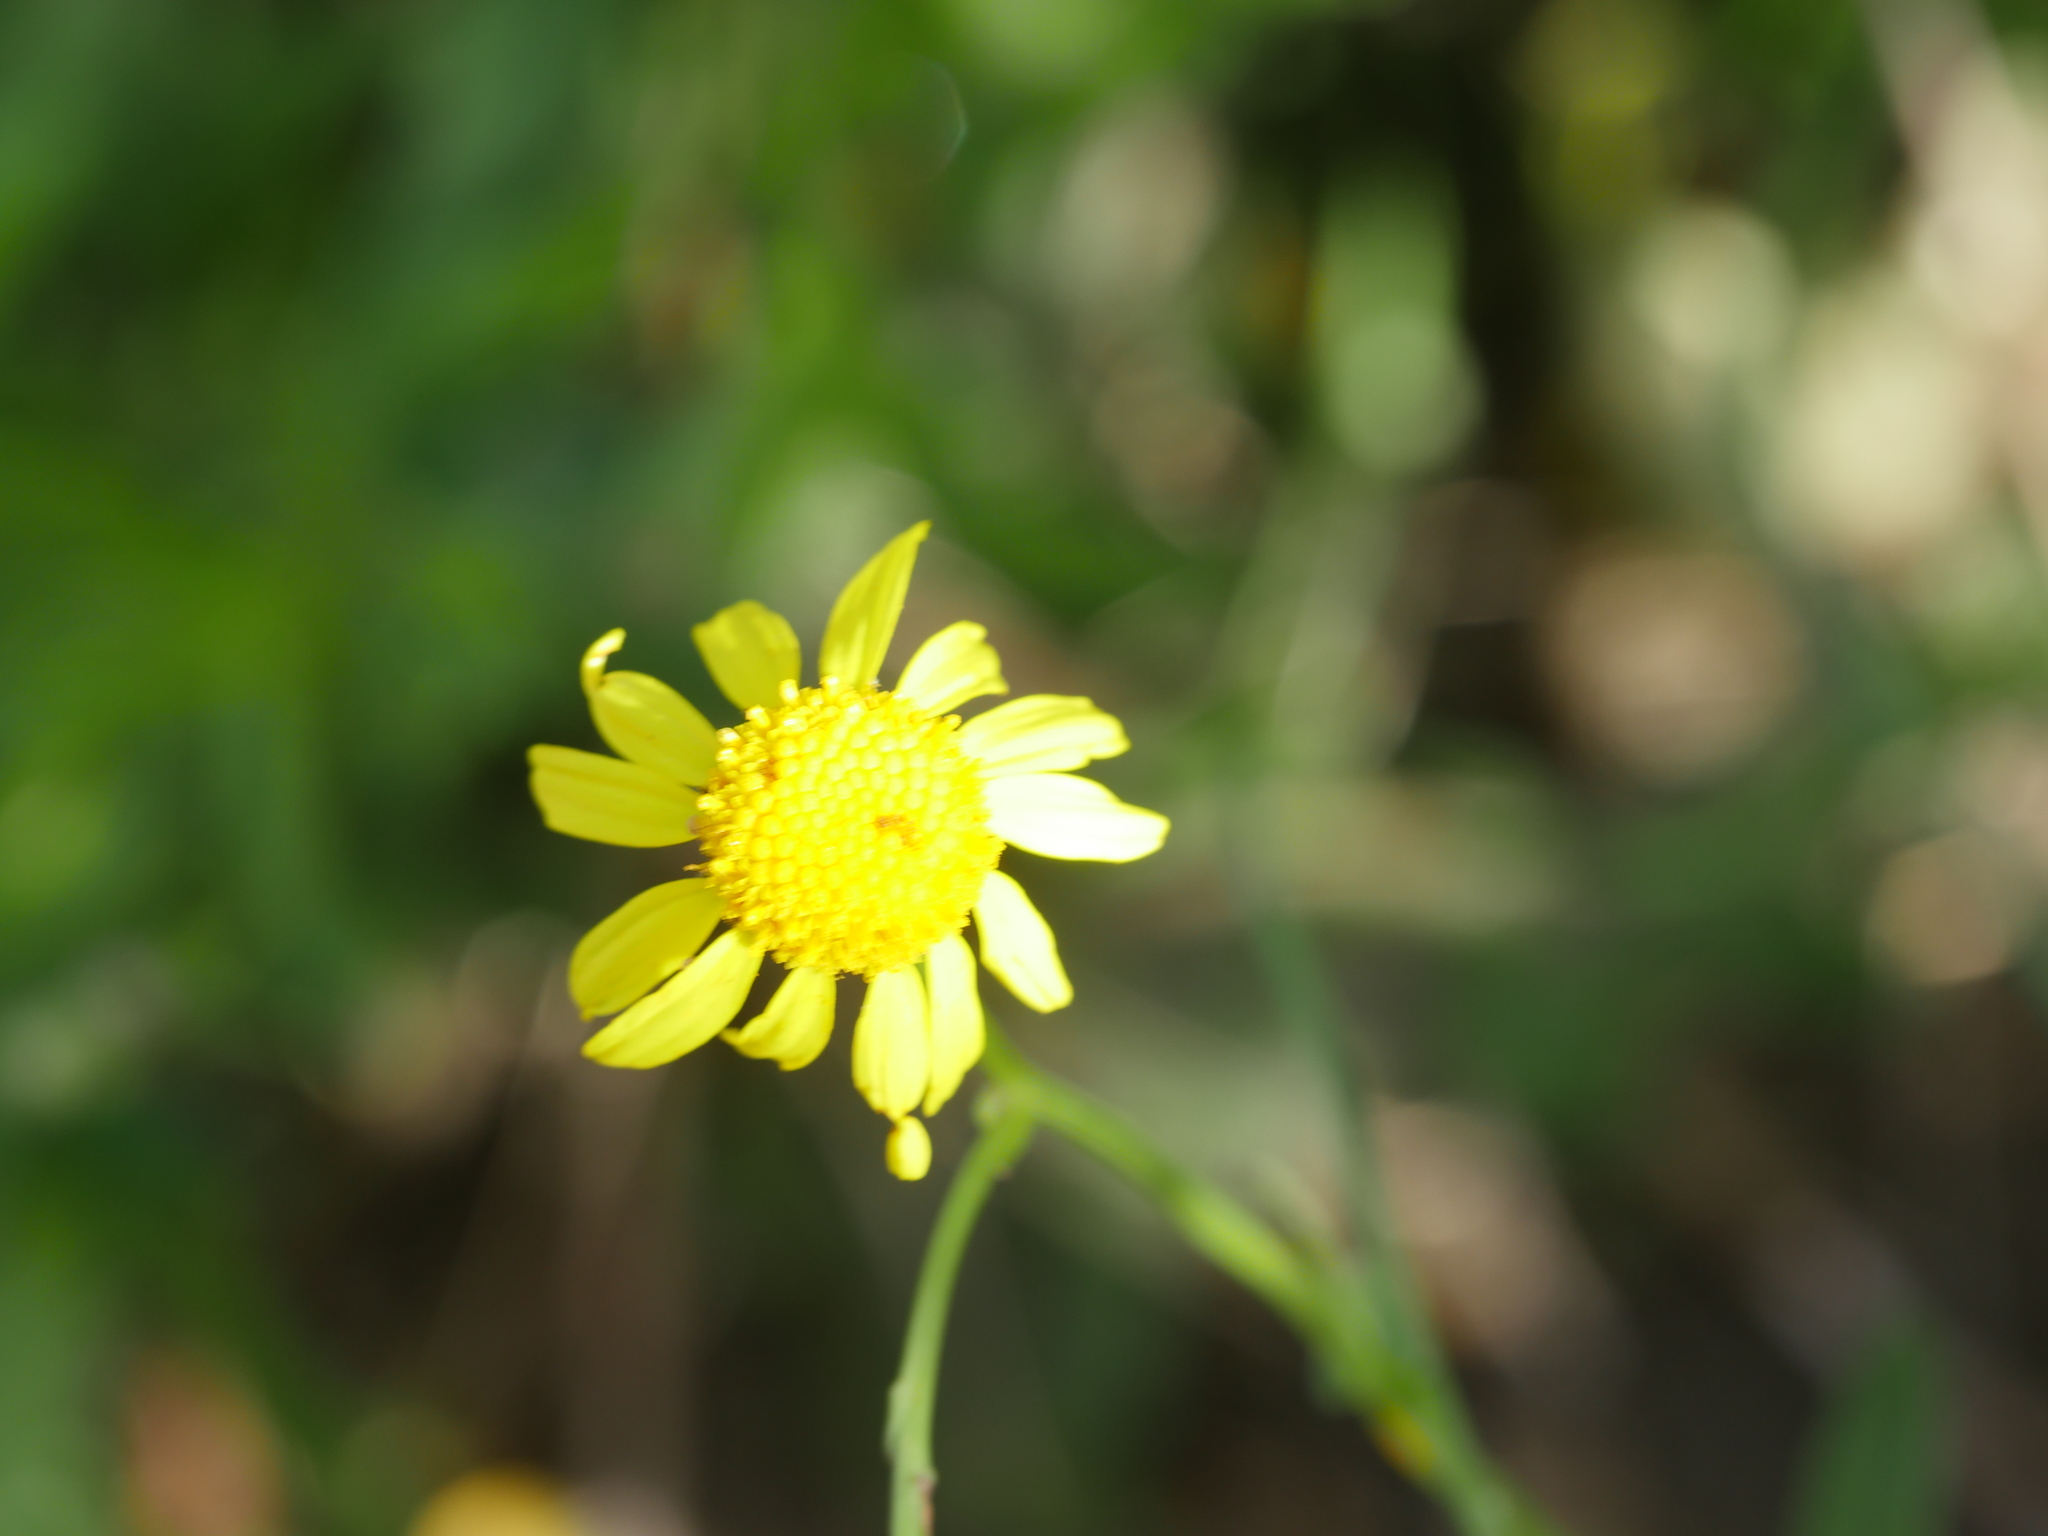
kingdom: Plantae
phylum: Tracheophyta
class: Magnoliopsida
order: Asterales
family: Asteraceae
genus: Senecio
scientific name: Senecio skirrhodon
